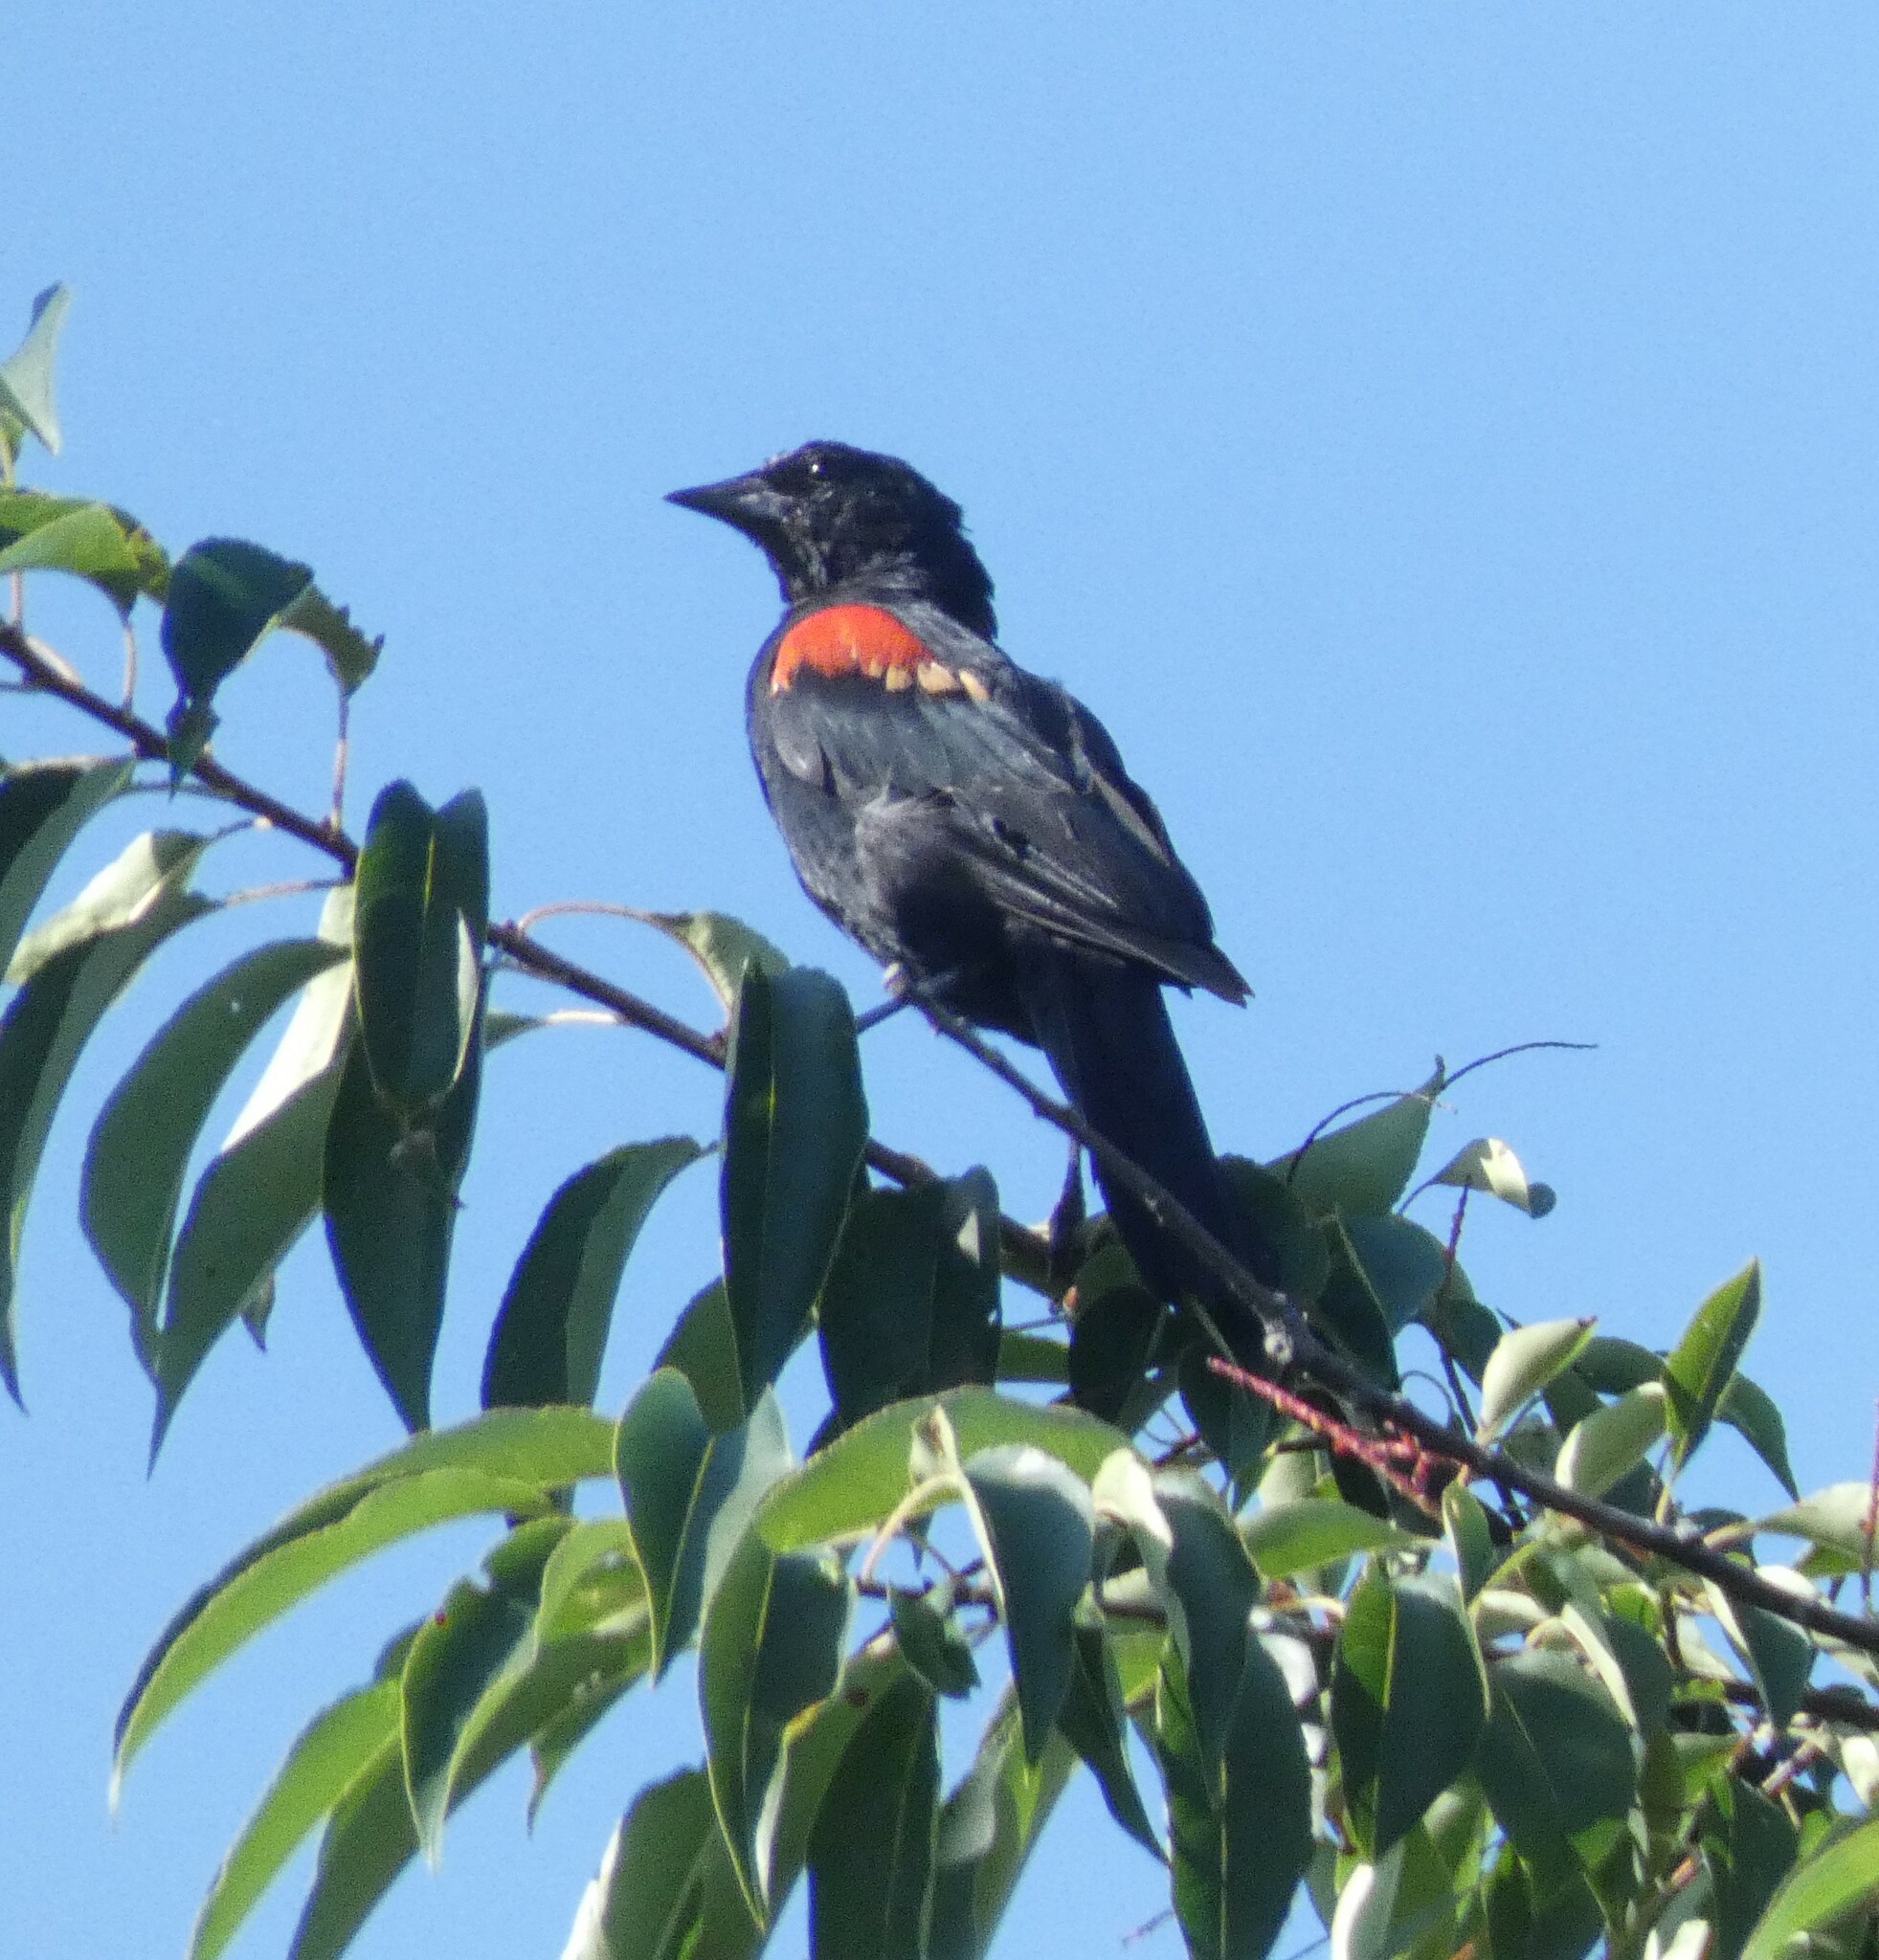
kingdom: Animalia
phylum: Chordata
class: Aves
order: Passeriformes
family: Icteridae
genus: Agelaius
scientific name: Agelaius phoeniceus
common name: Red-winged blackbird
